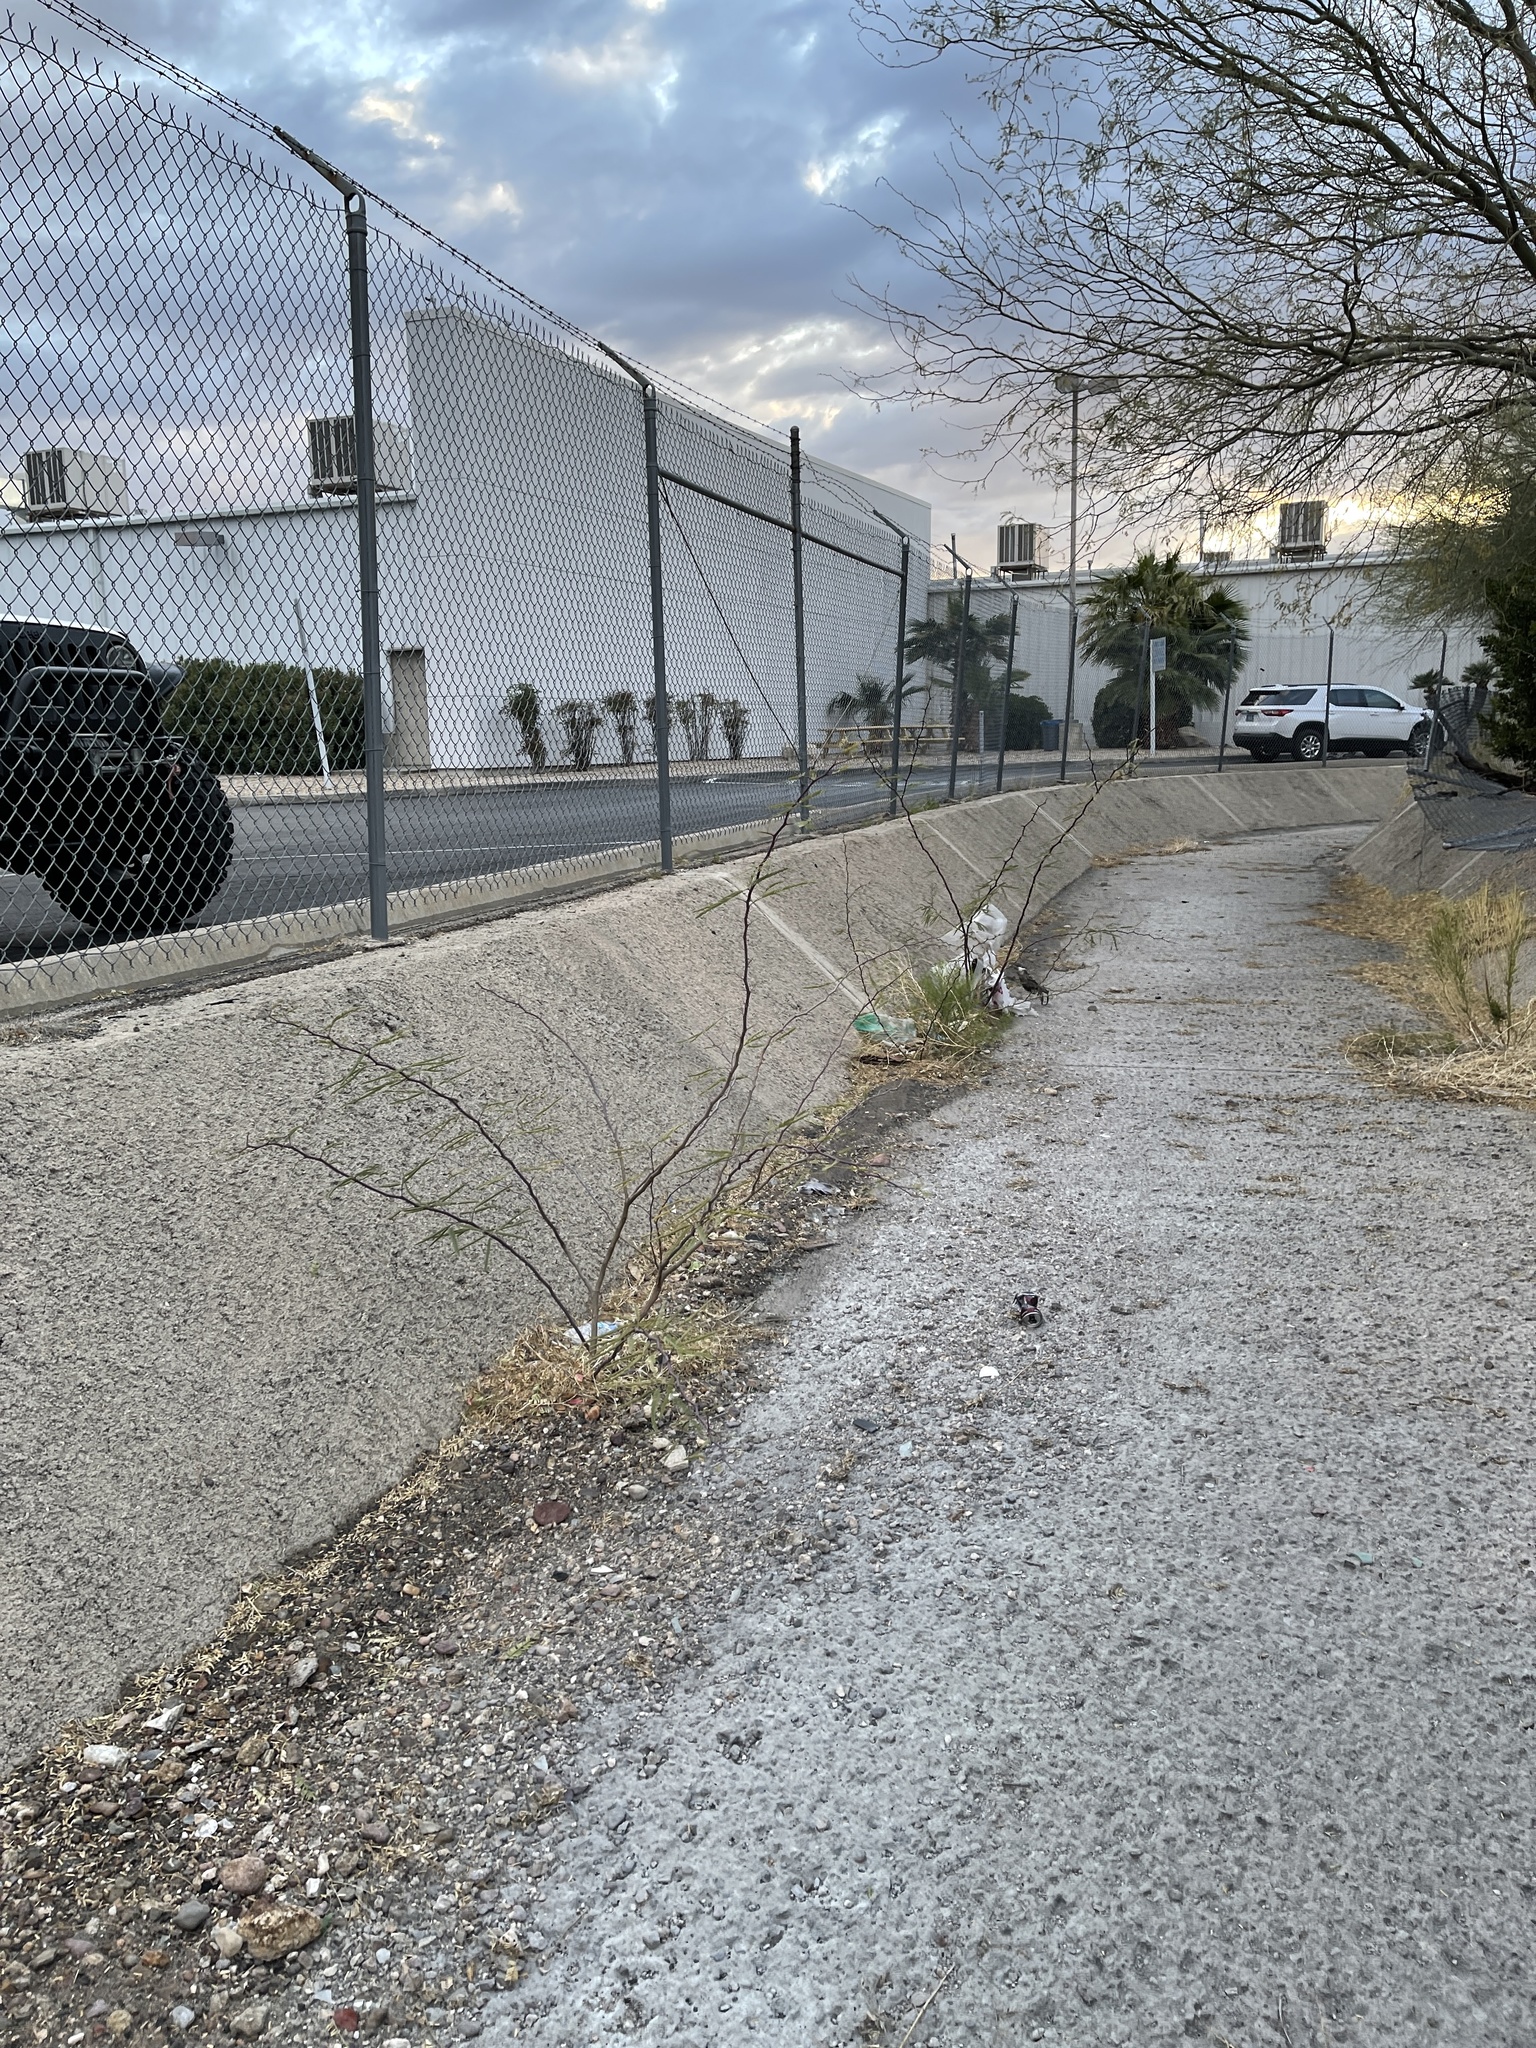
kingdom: Plantae
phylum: Tracheophyta
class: Magnoliopsida
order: Fabales
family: Fabaceae
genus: Prosopis
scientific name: Prosopis chilensis
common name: Chilean algarrobo
